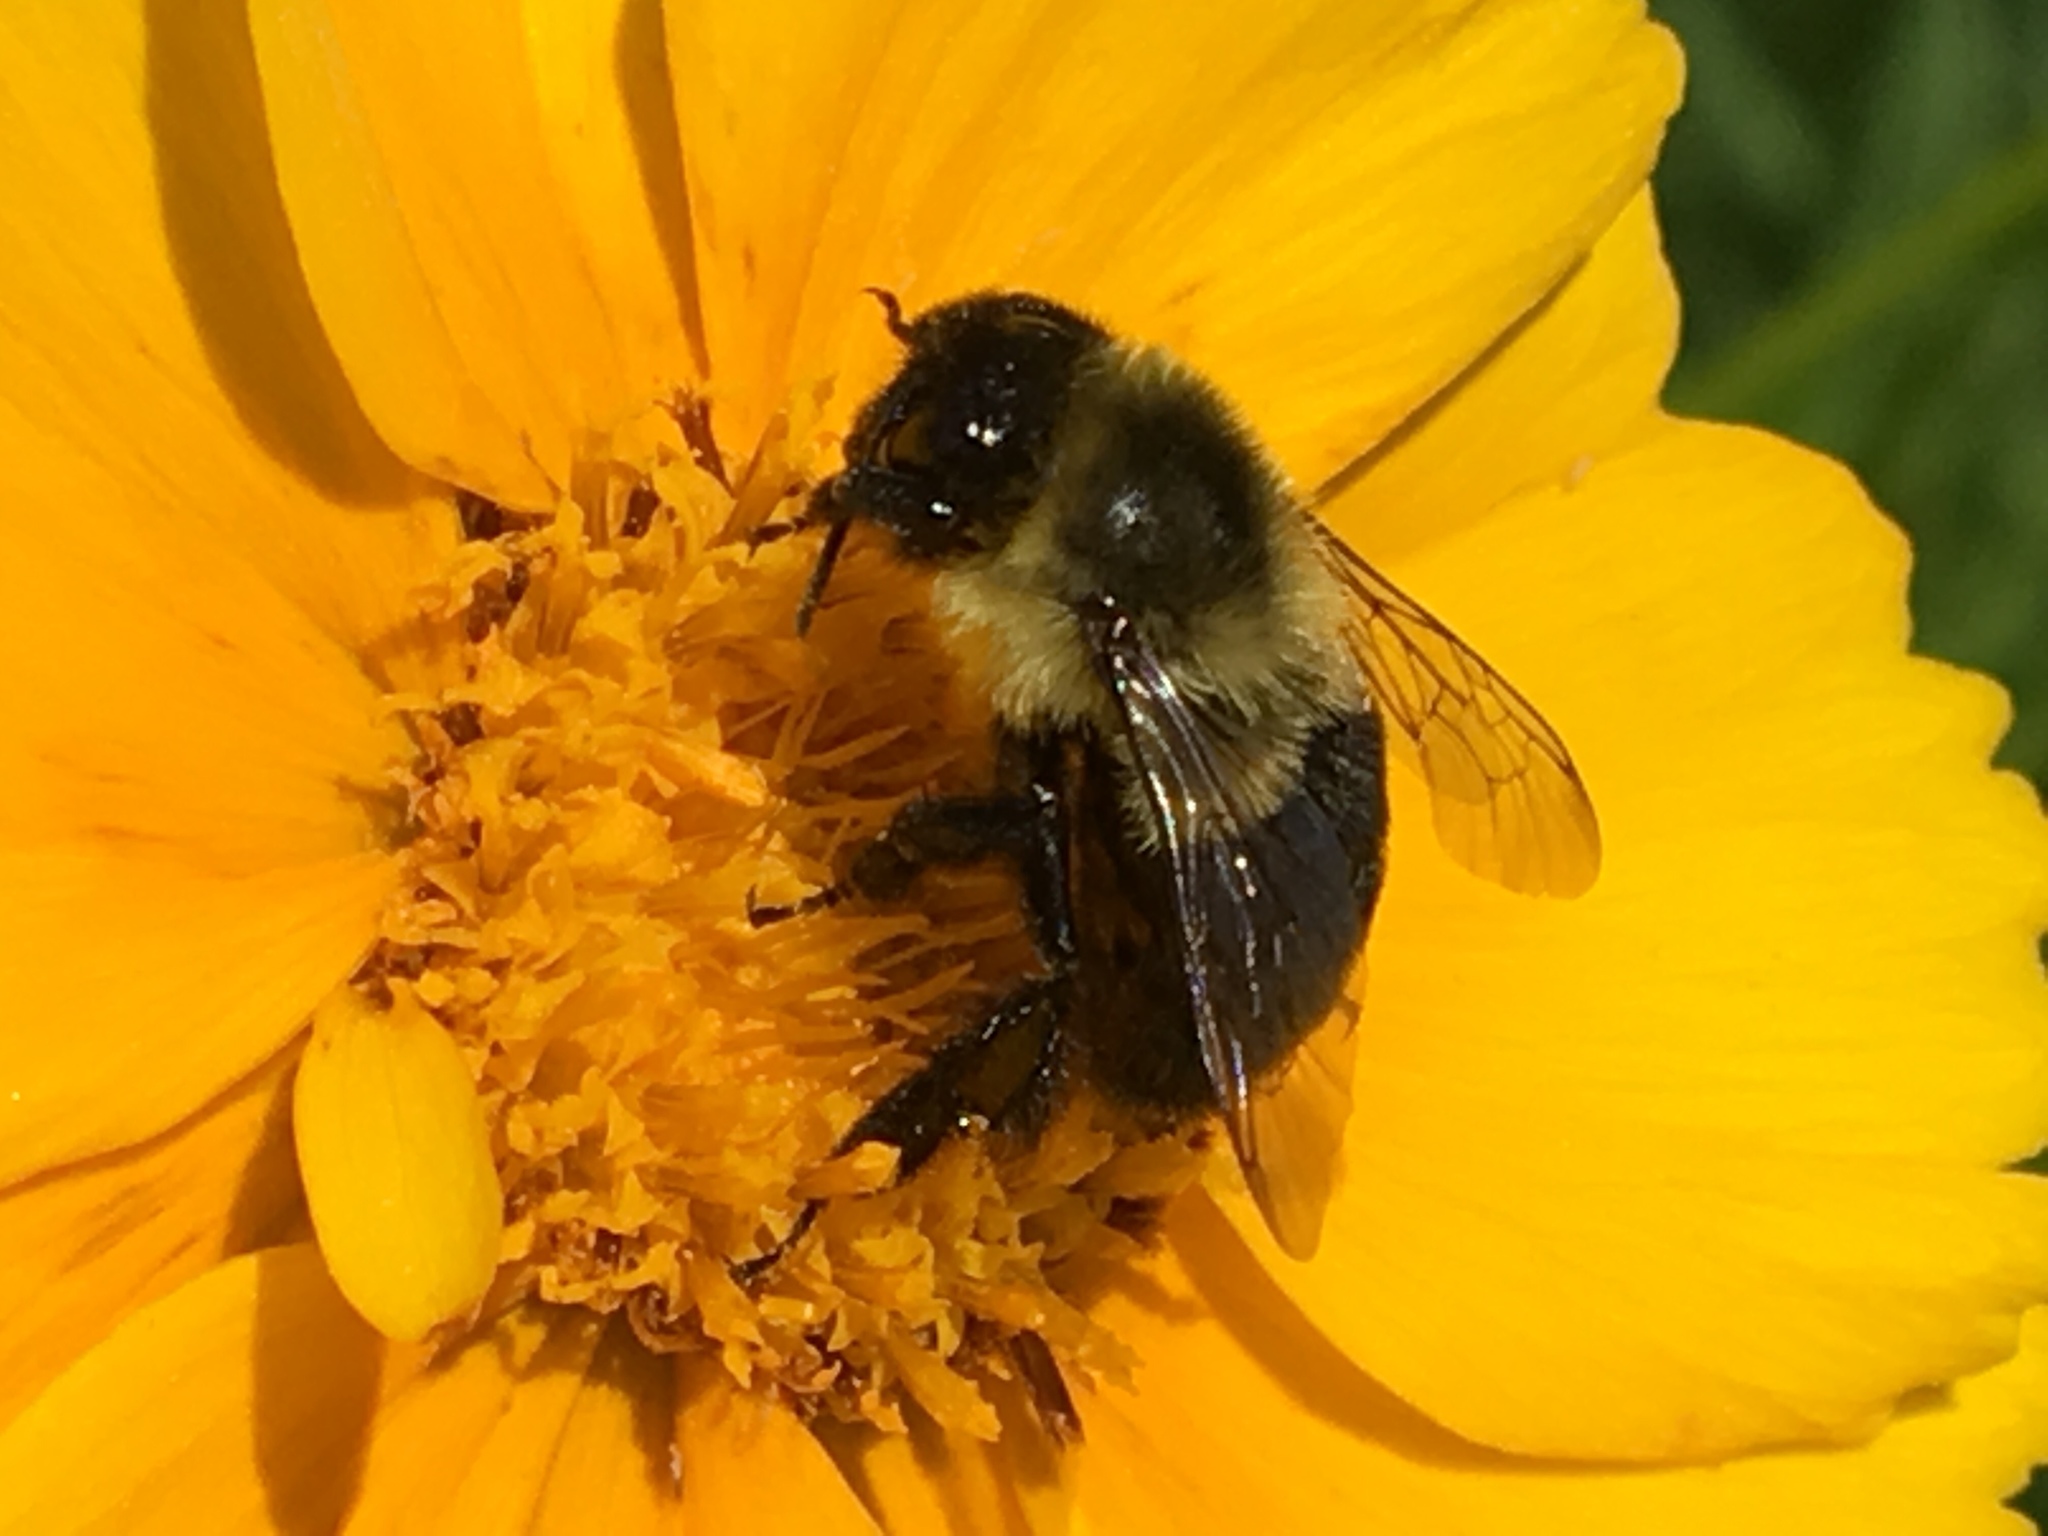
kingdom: Animalia
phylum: Arthropoda
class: Insecta
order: Hymenoptera
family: Apidae
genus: Bombus
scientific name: Bombus impatiens
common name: Common eastern bumble bee
